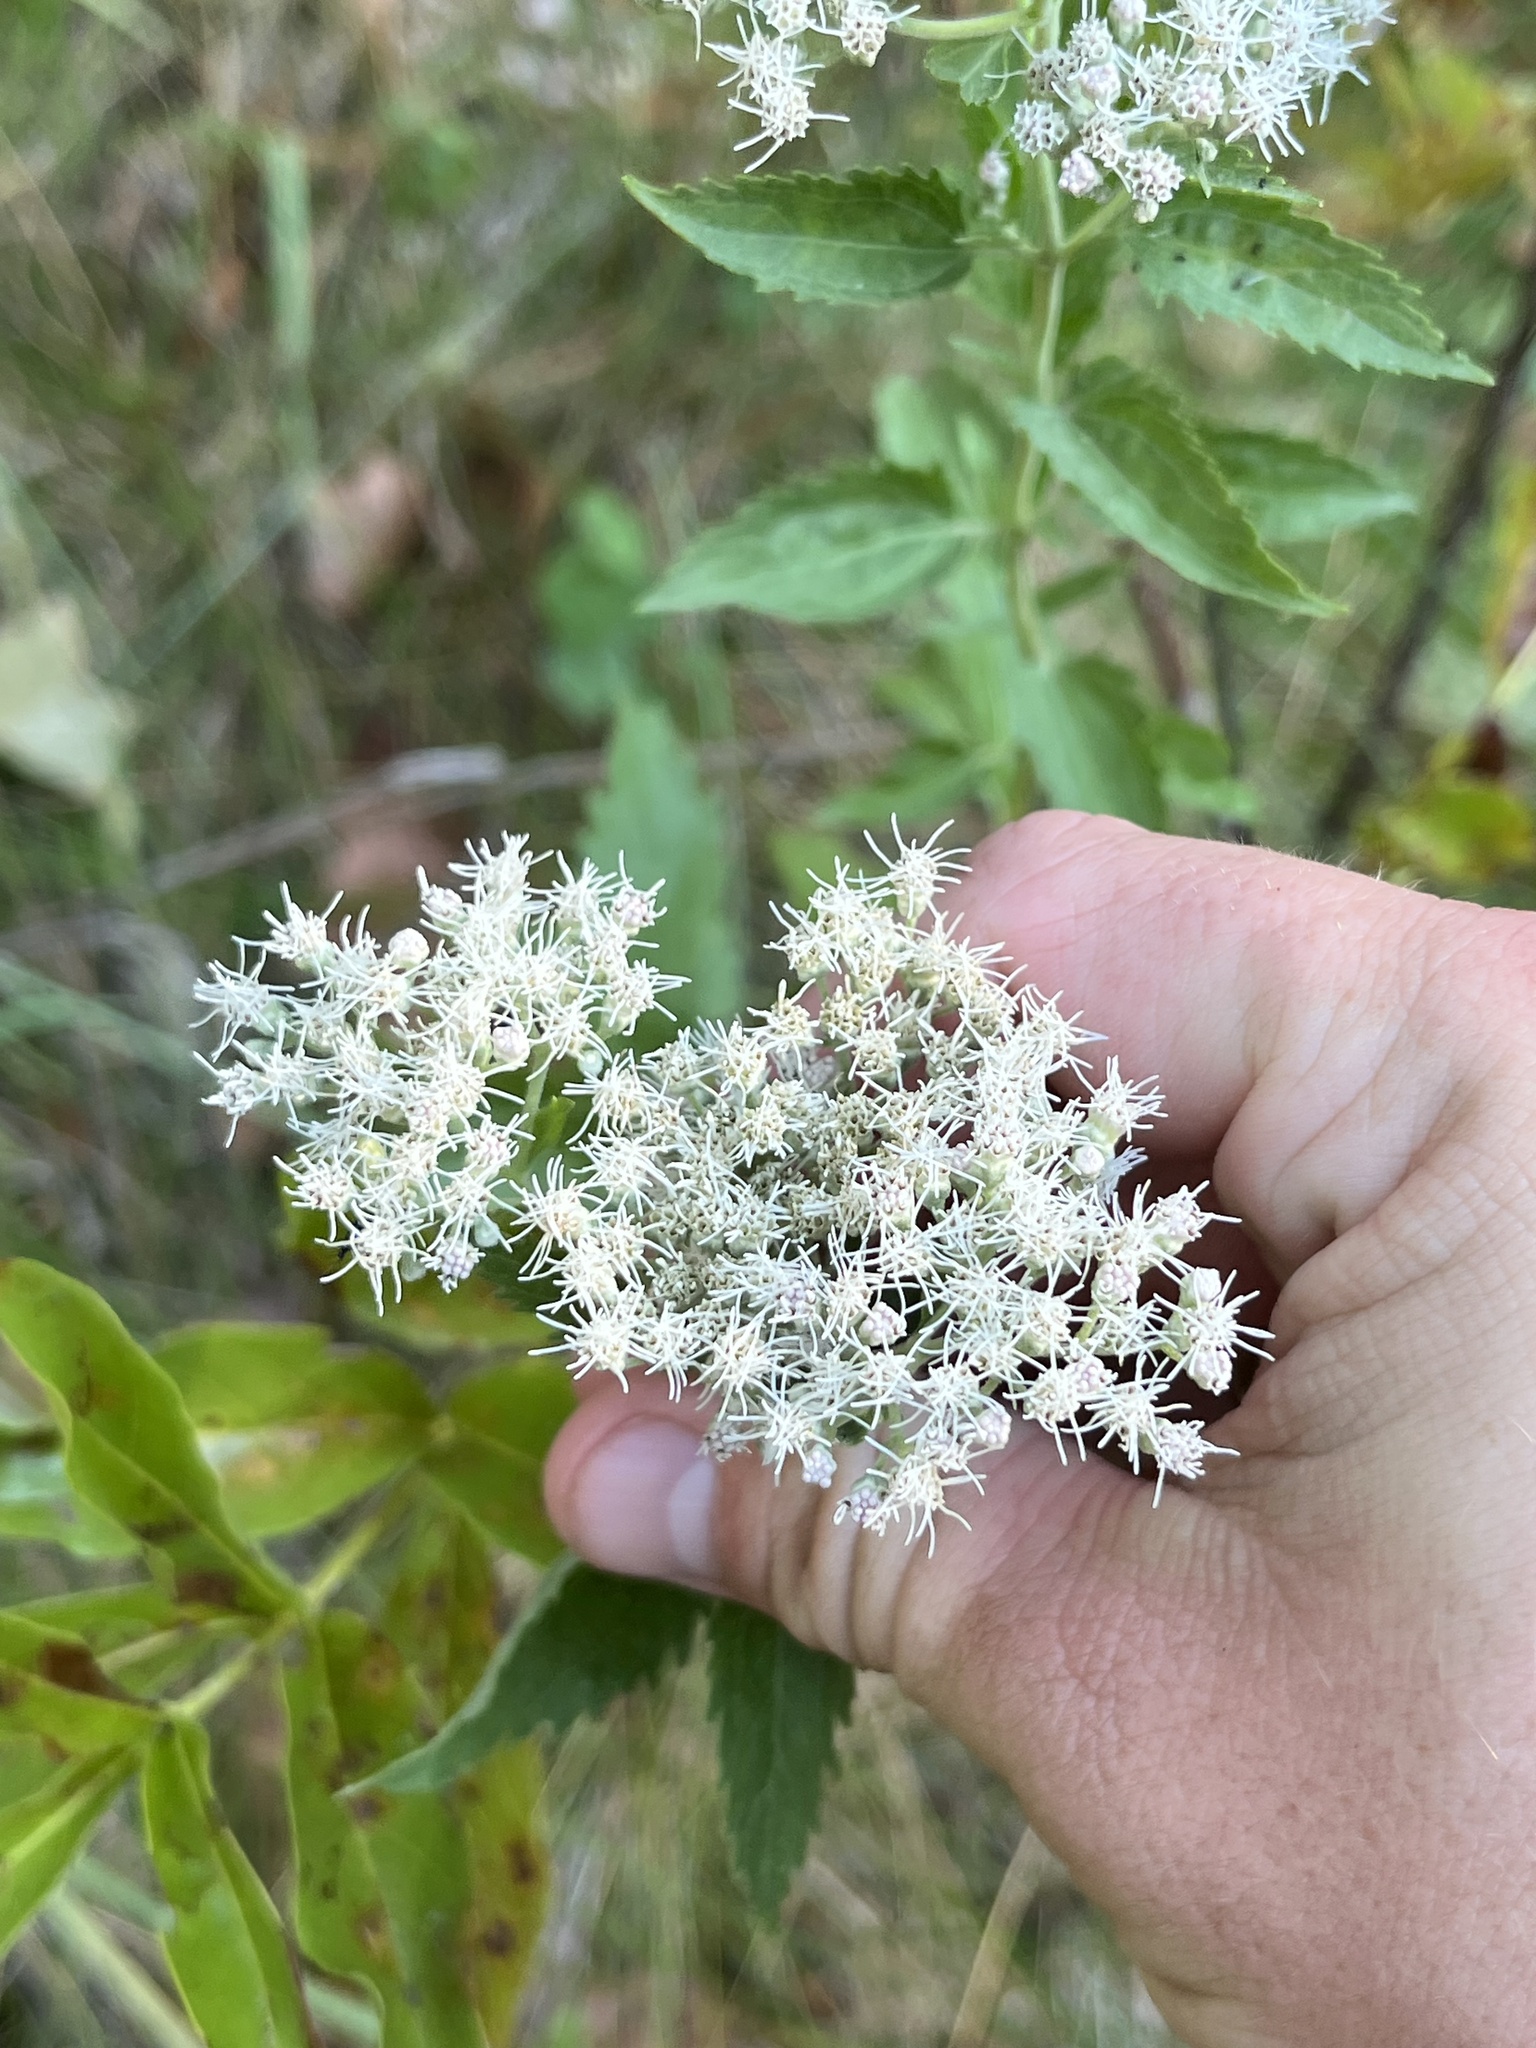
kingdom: Plantae
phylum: Tracheophyta
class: Magnoliopsida
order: Asterales
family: Asteraceae
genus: Eupatorium
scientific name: Eupatorium serotinum
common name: Late boneset
